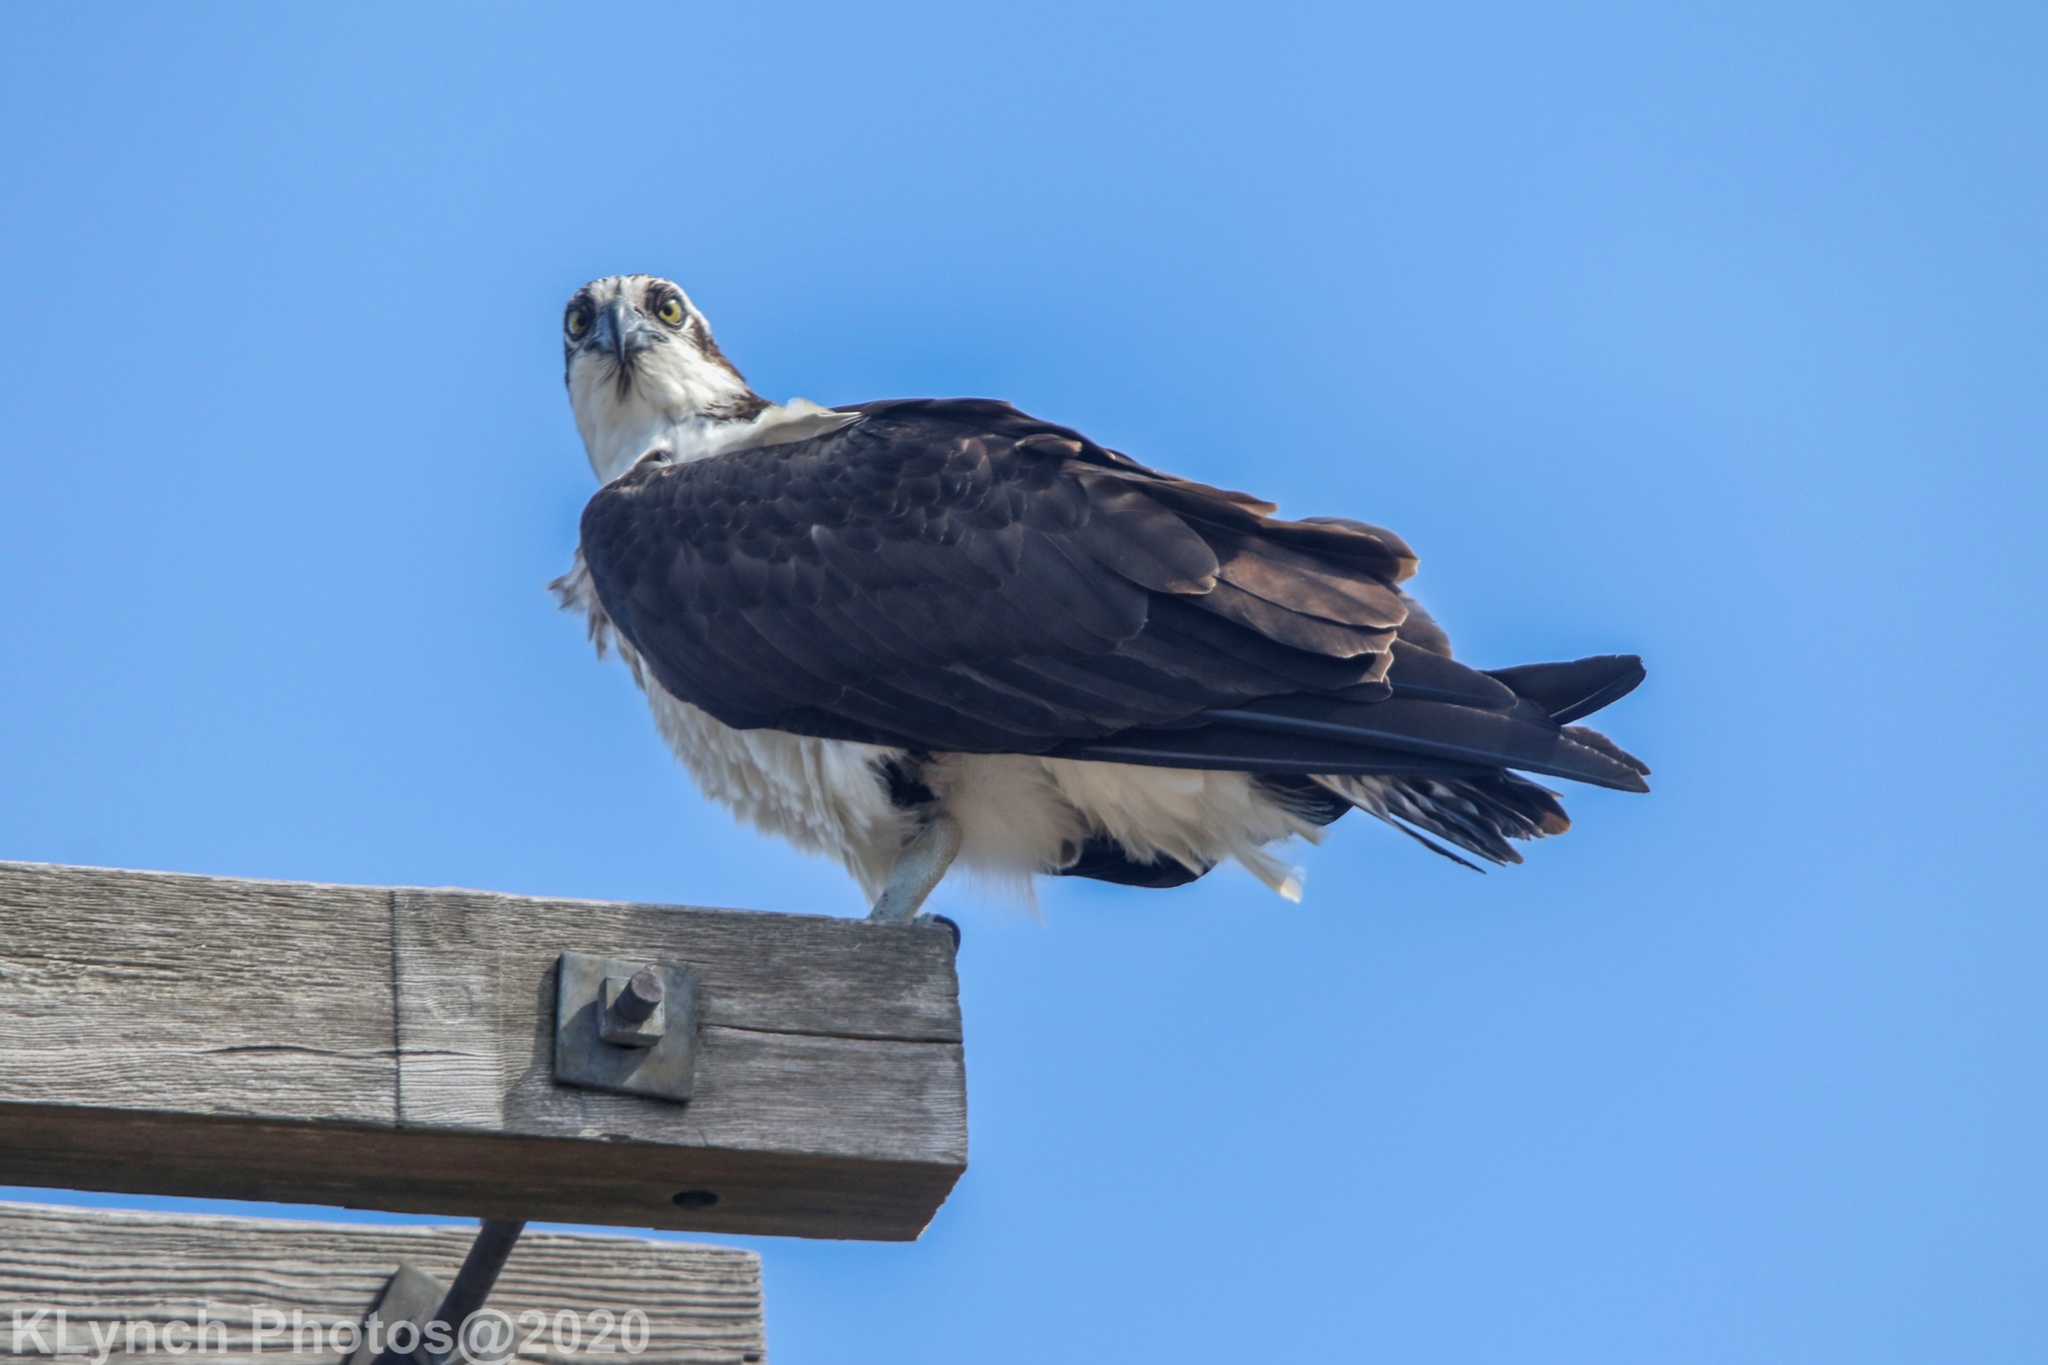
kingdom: Animalia
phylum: Chordata
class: Aves
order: Accipitriformes
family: Pandionidae
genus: Pandion
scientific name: Pandion haliaetus
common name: Osprey
